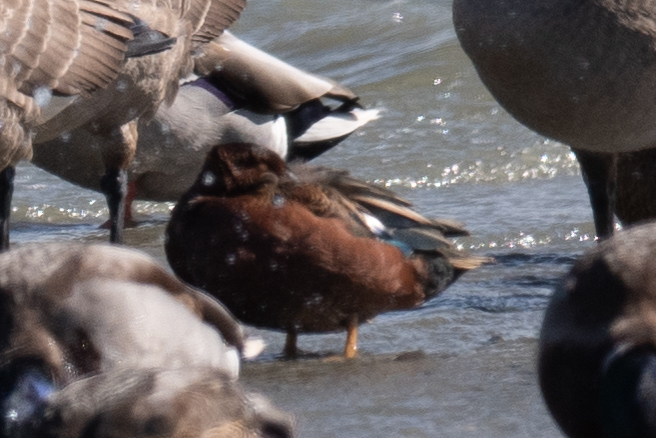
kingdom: Animalia
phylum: Chordata
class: Aves
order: Anseriformes
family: Anatidae
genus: Spatula
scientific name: Spatula cyanoptera
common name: Cinnamon teal
